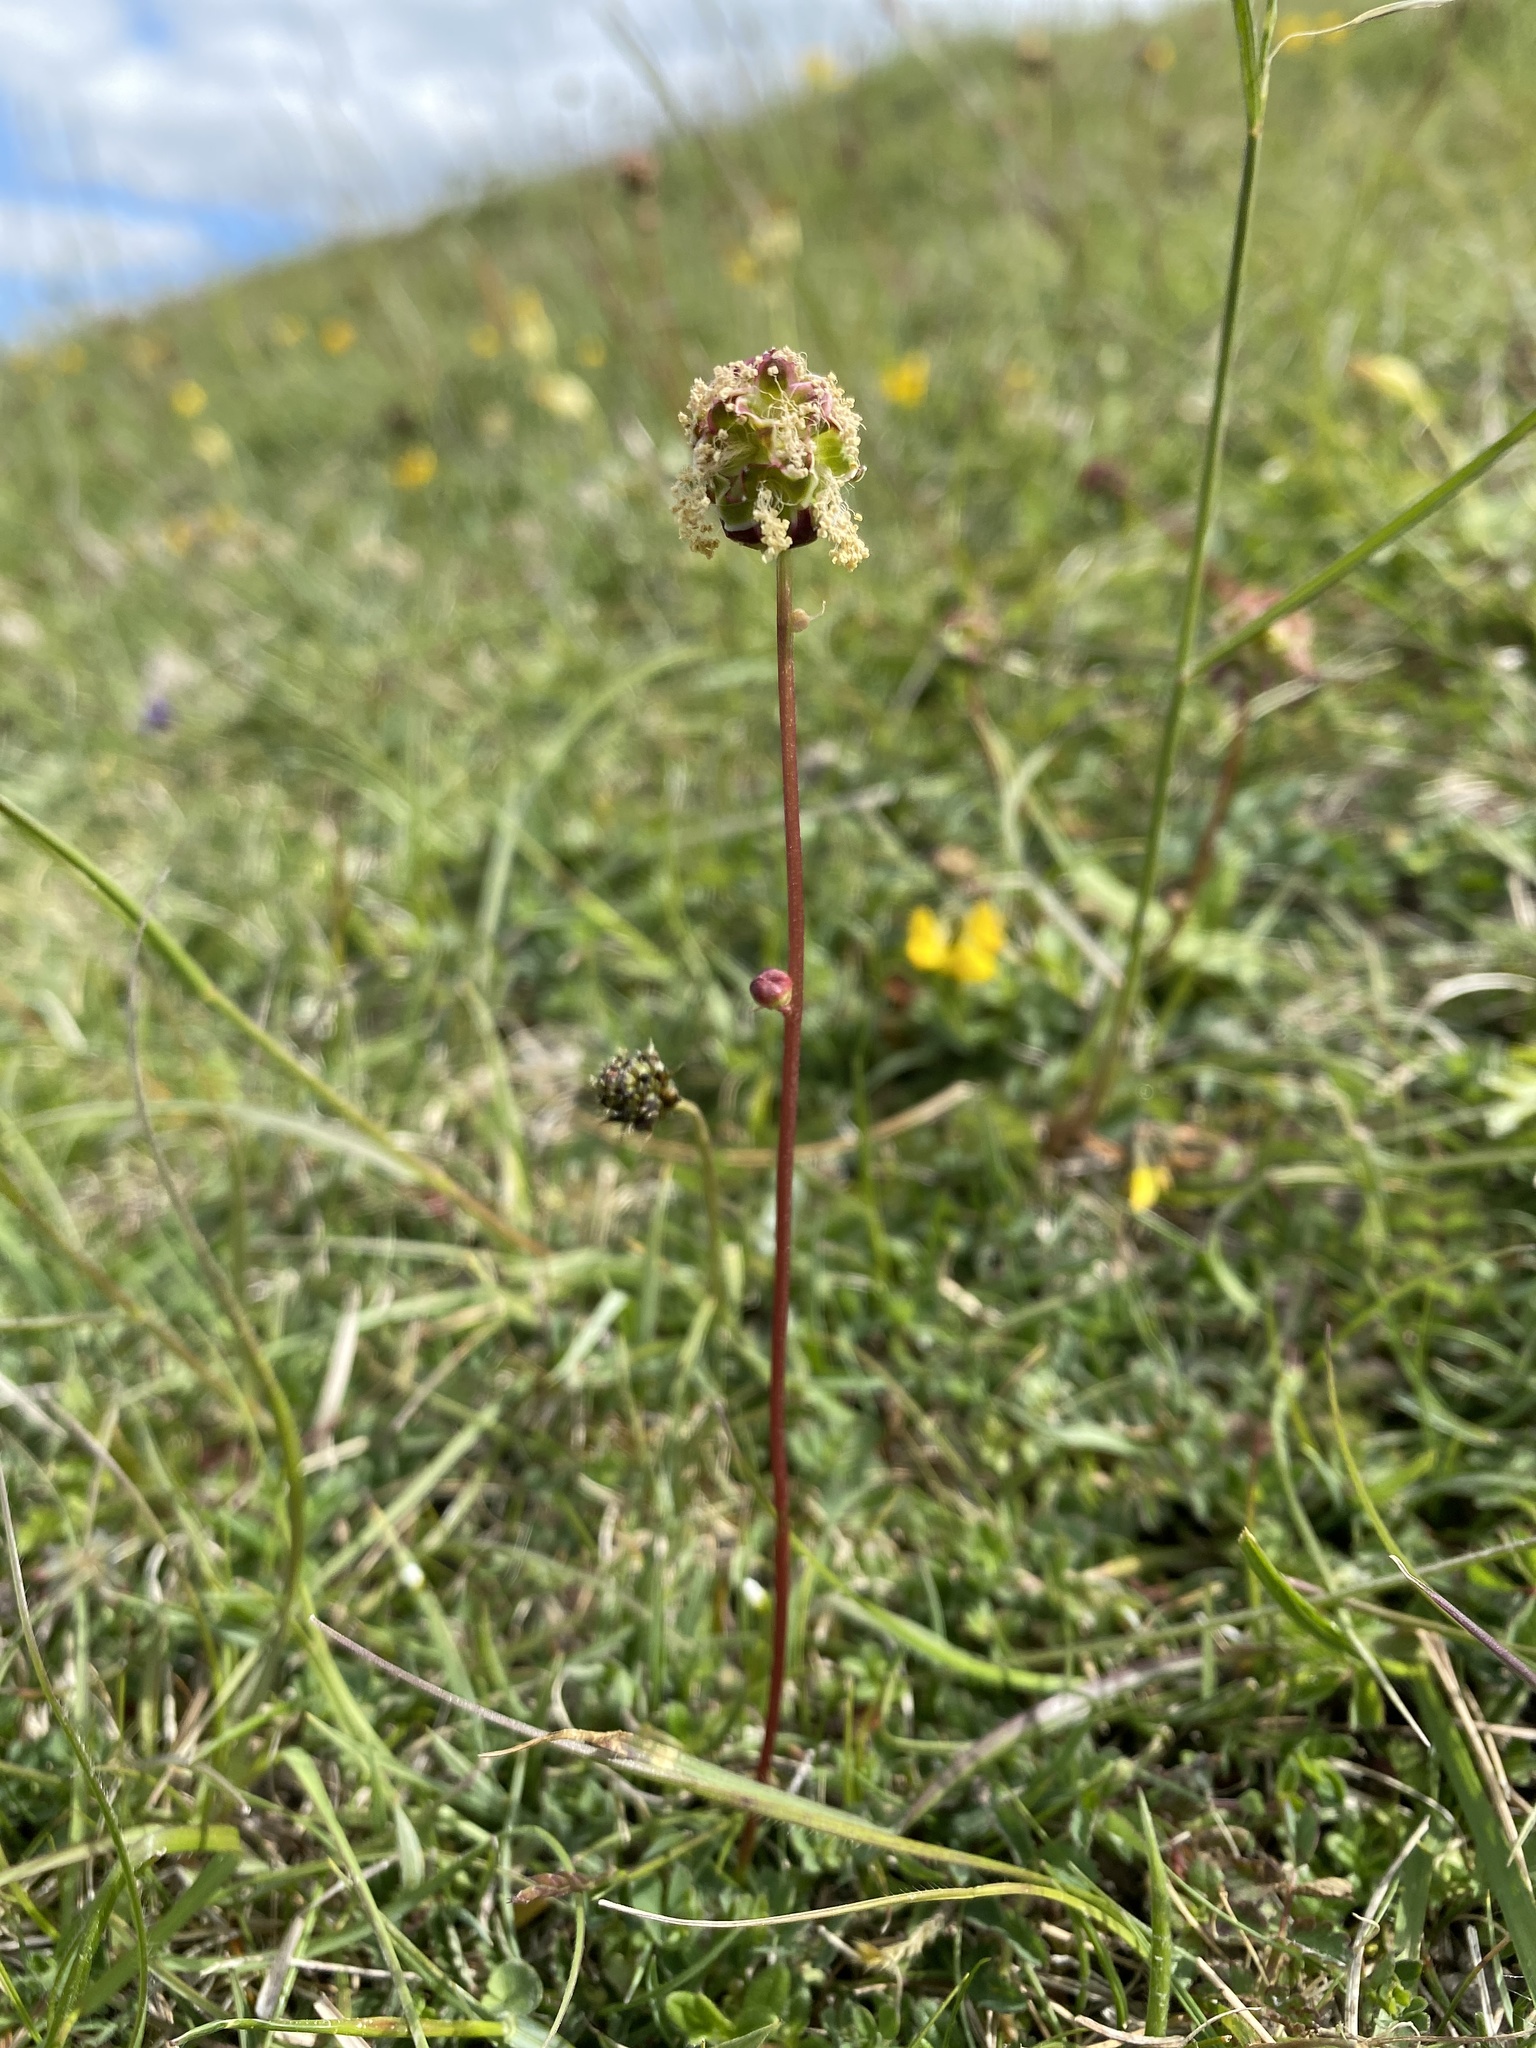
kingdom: Plantae
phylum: Tracheophyta
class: Magnoliopsida
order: Rosales
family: Rosaceae
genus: Poterium
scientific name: Poterium sanguisorba
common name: Salad burnet
